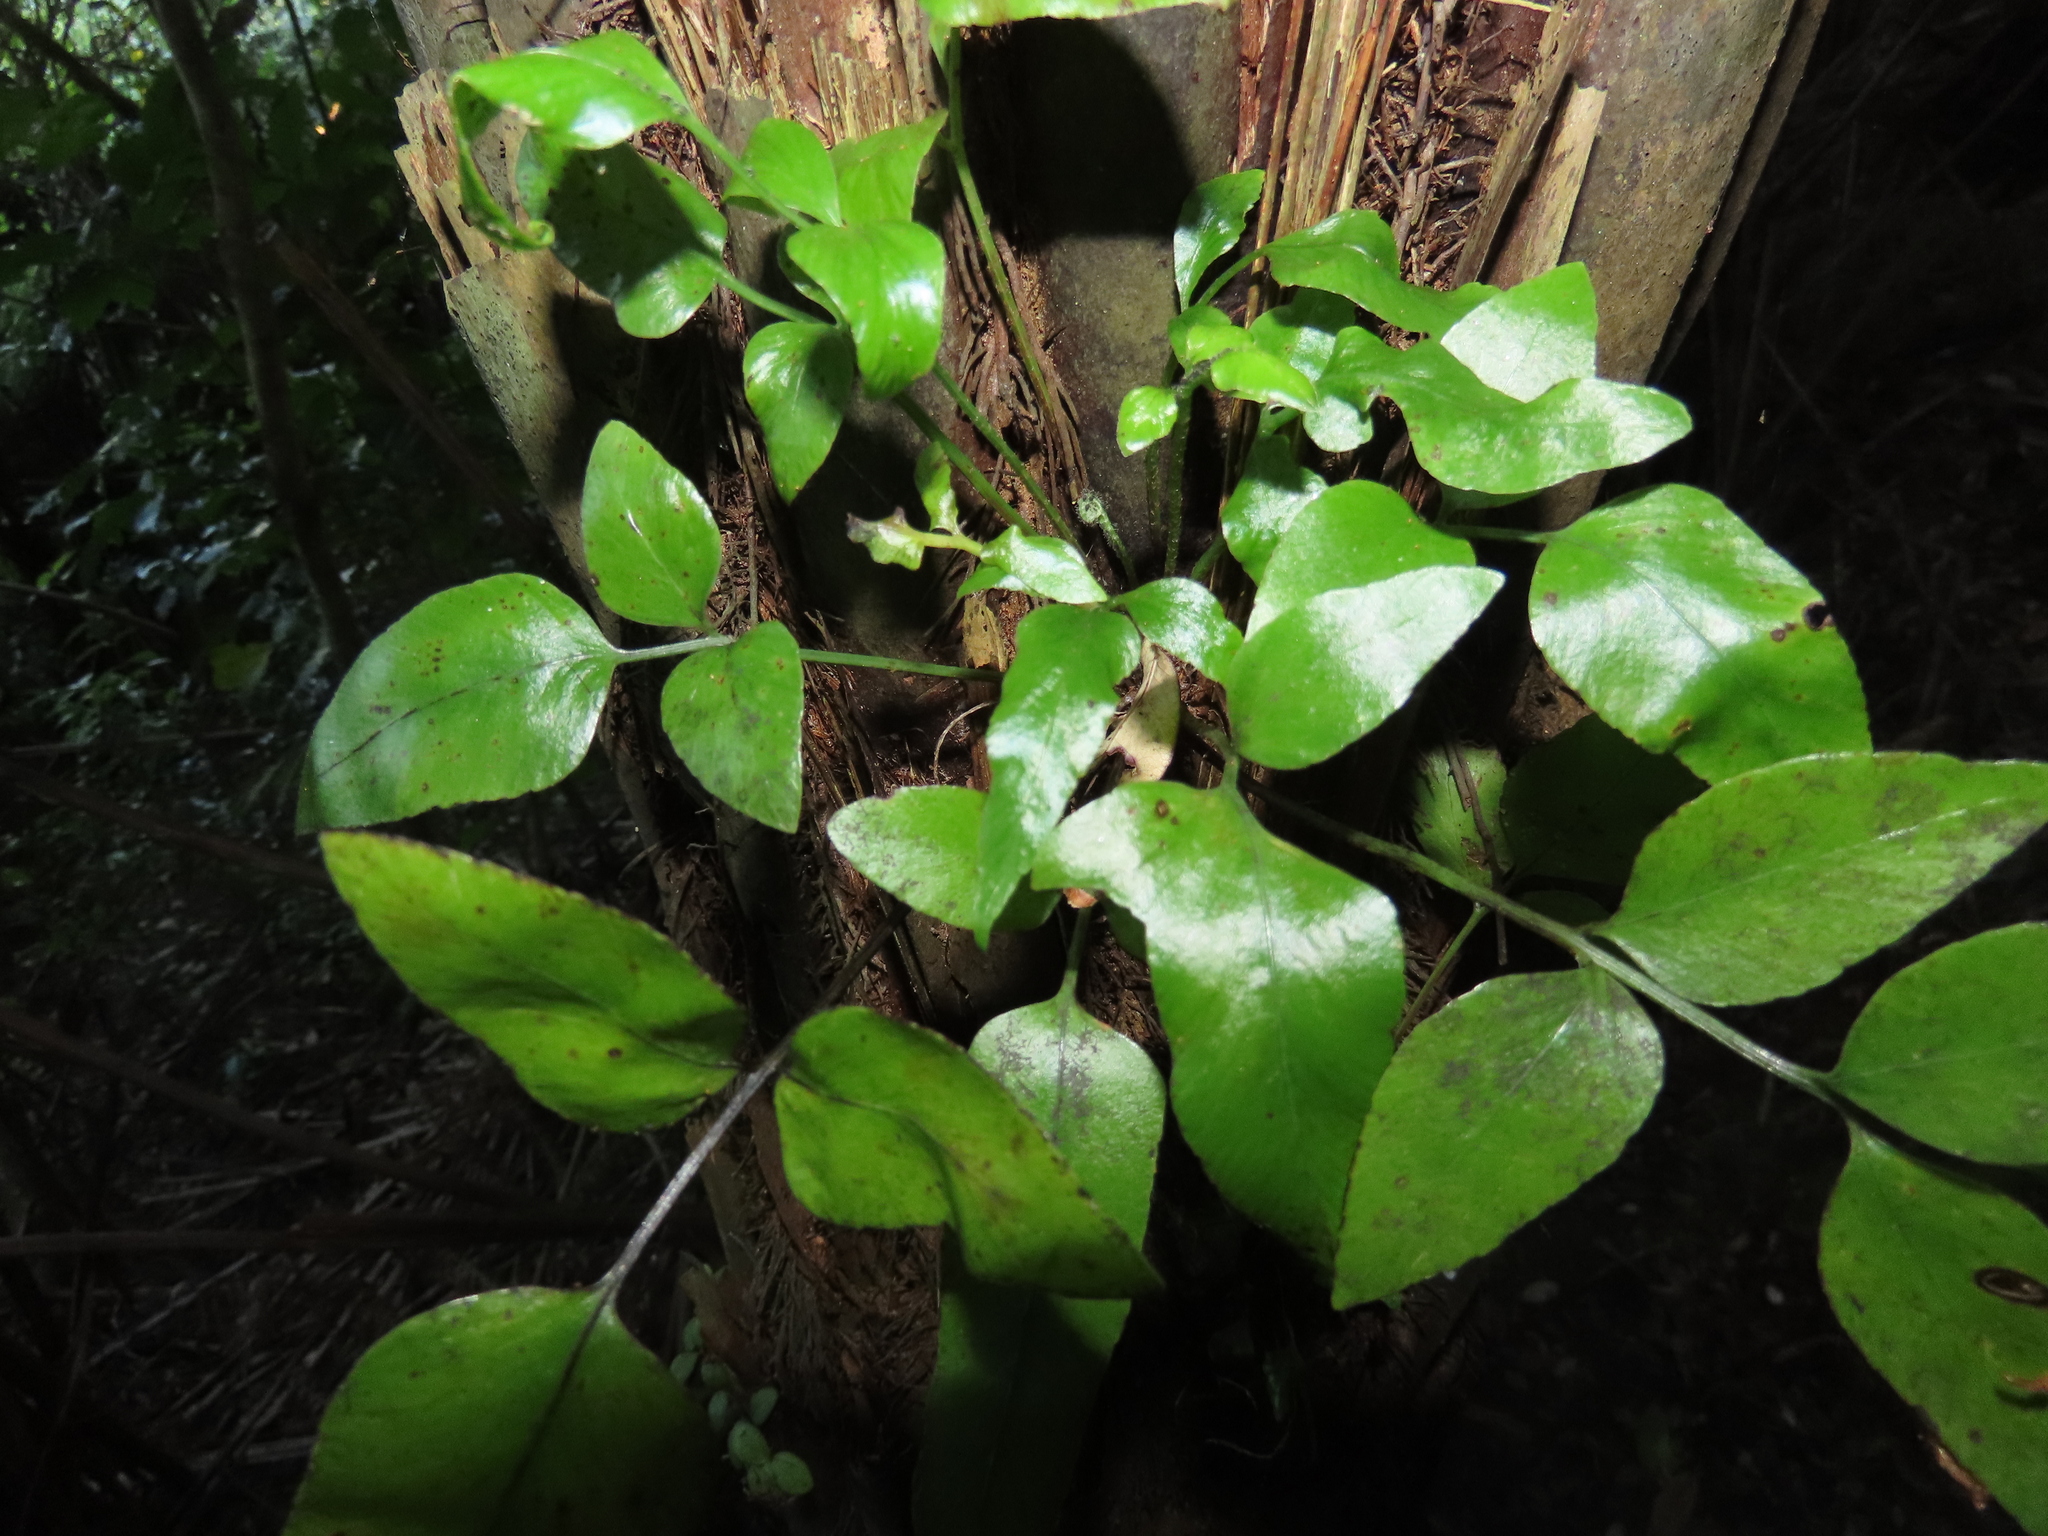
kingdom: Plantae
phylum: Tracheophyta
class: Polypodiopsida
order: Polypodiales
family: Aspleniaceae
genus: Asplenium
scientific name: Asplenium oblongifolium
